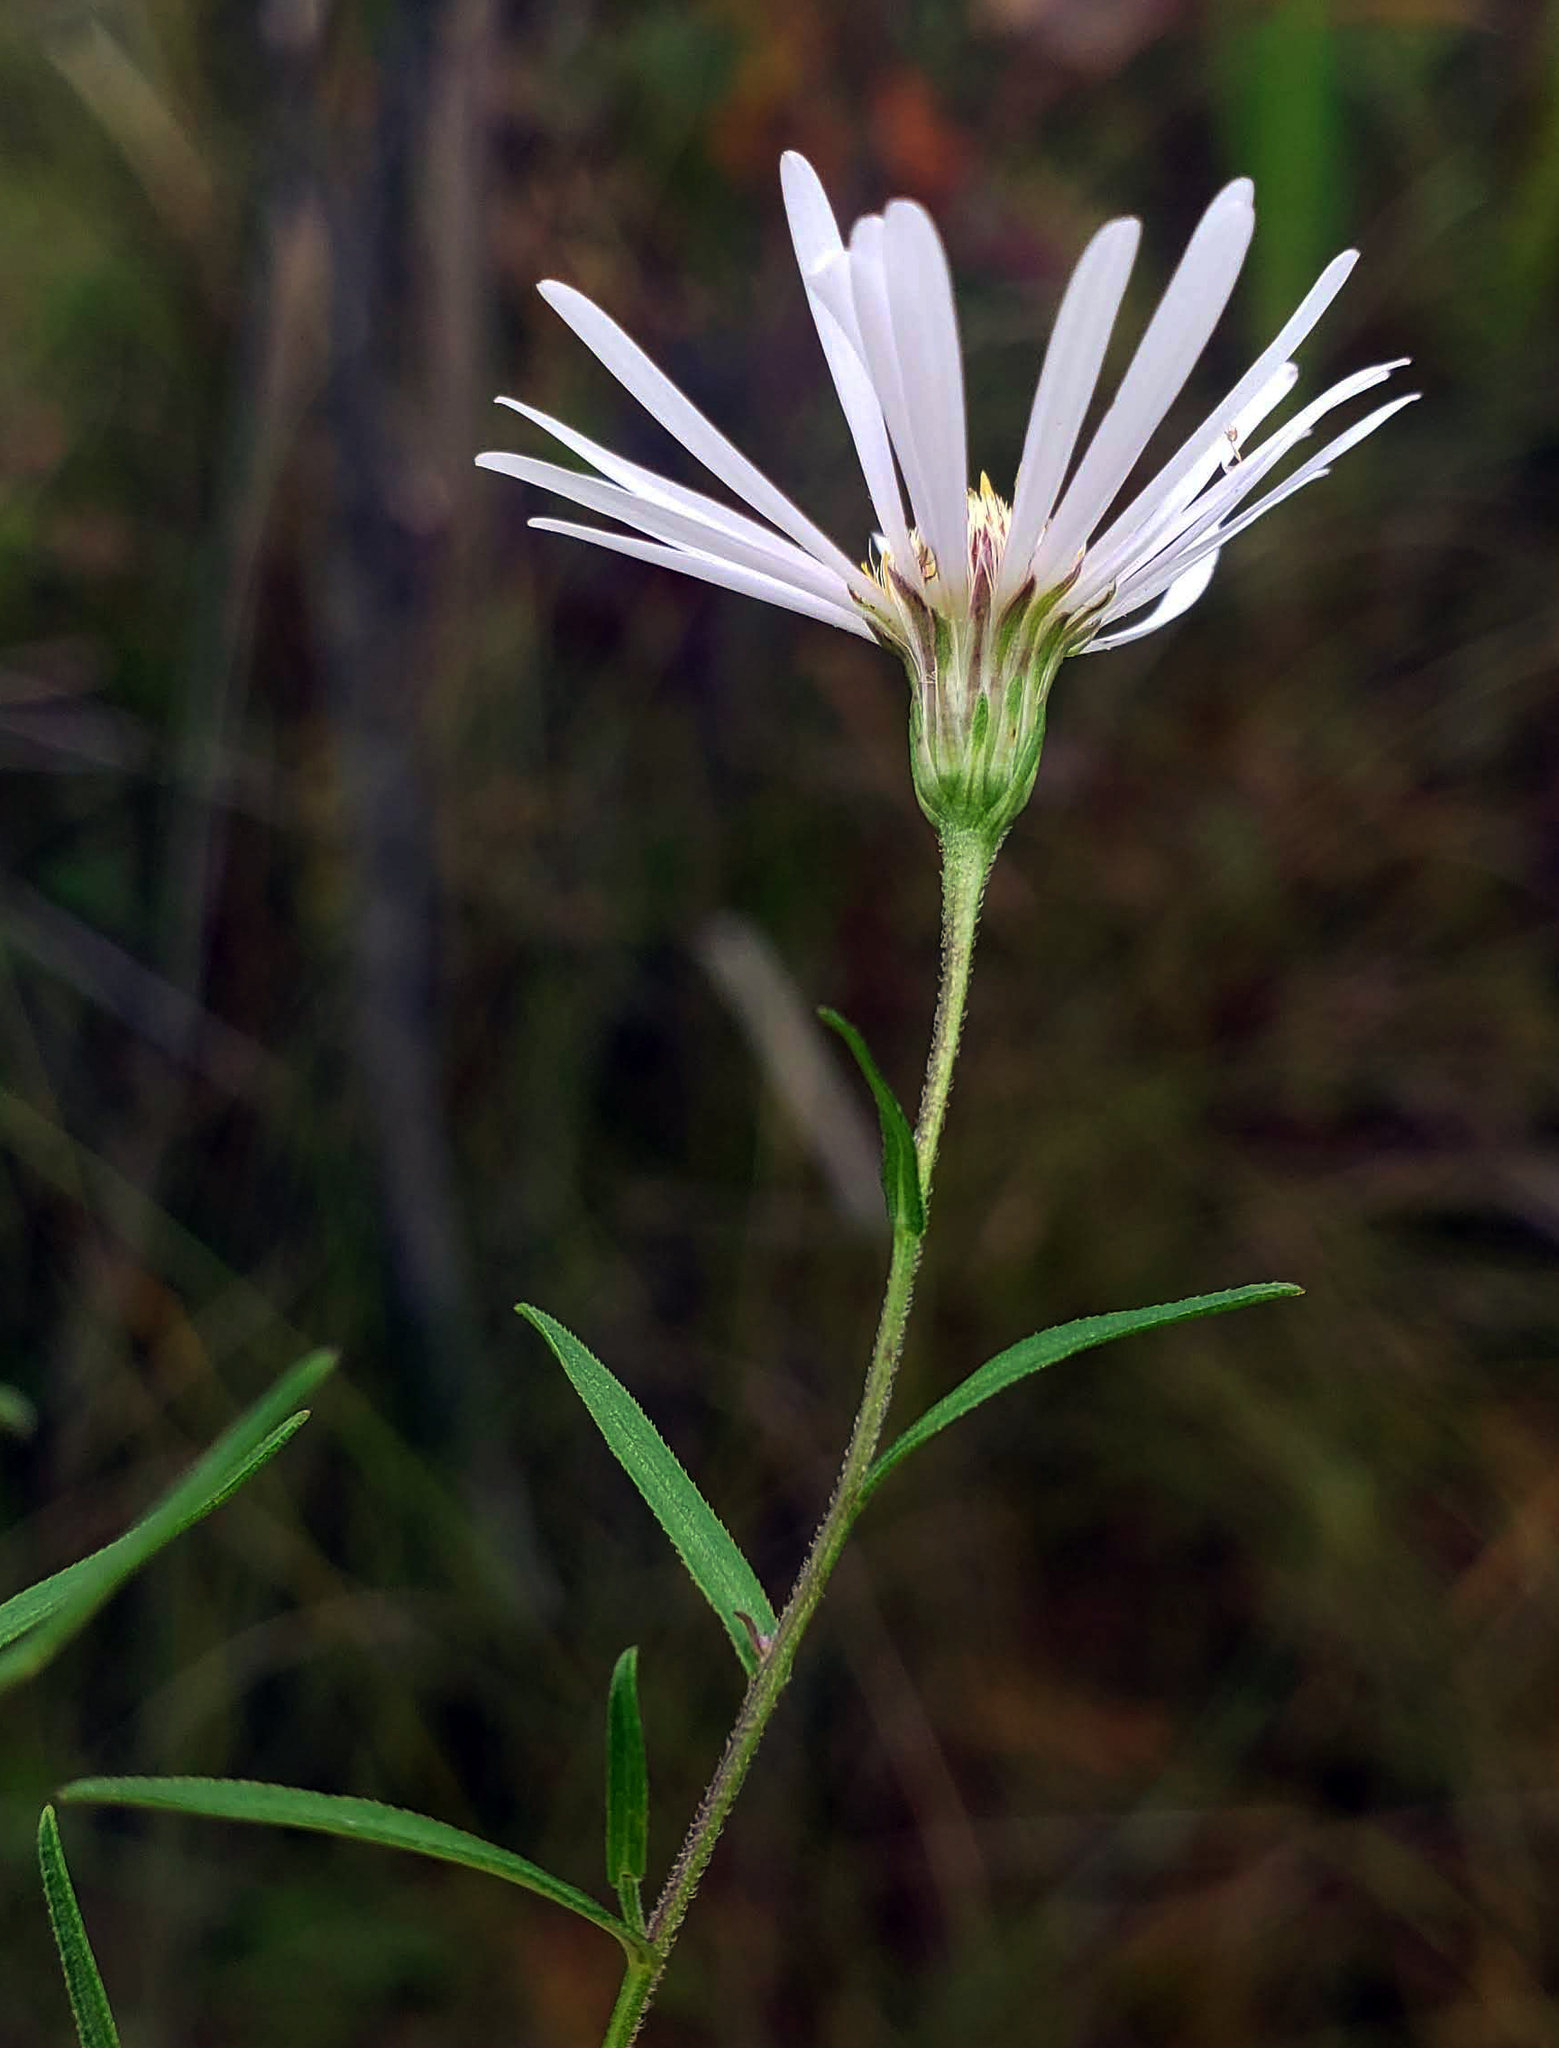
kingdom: Plantae
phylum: Tracheophyta
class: Magnoliopsida
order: Asterales
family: Asteraceae
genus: Symphyotrichum
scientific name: Symphyotrichum boreale
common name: Northern bog aster
